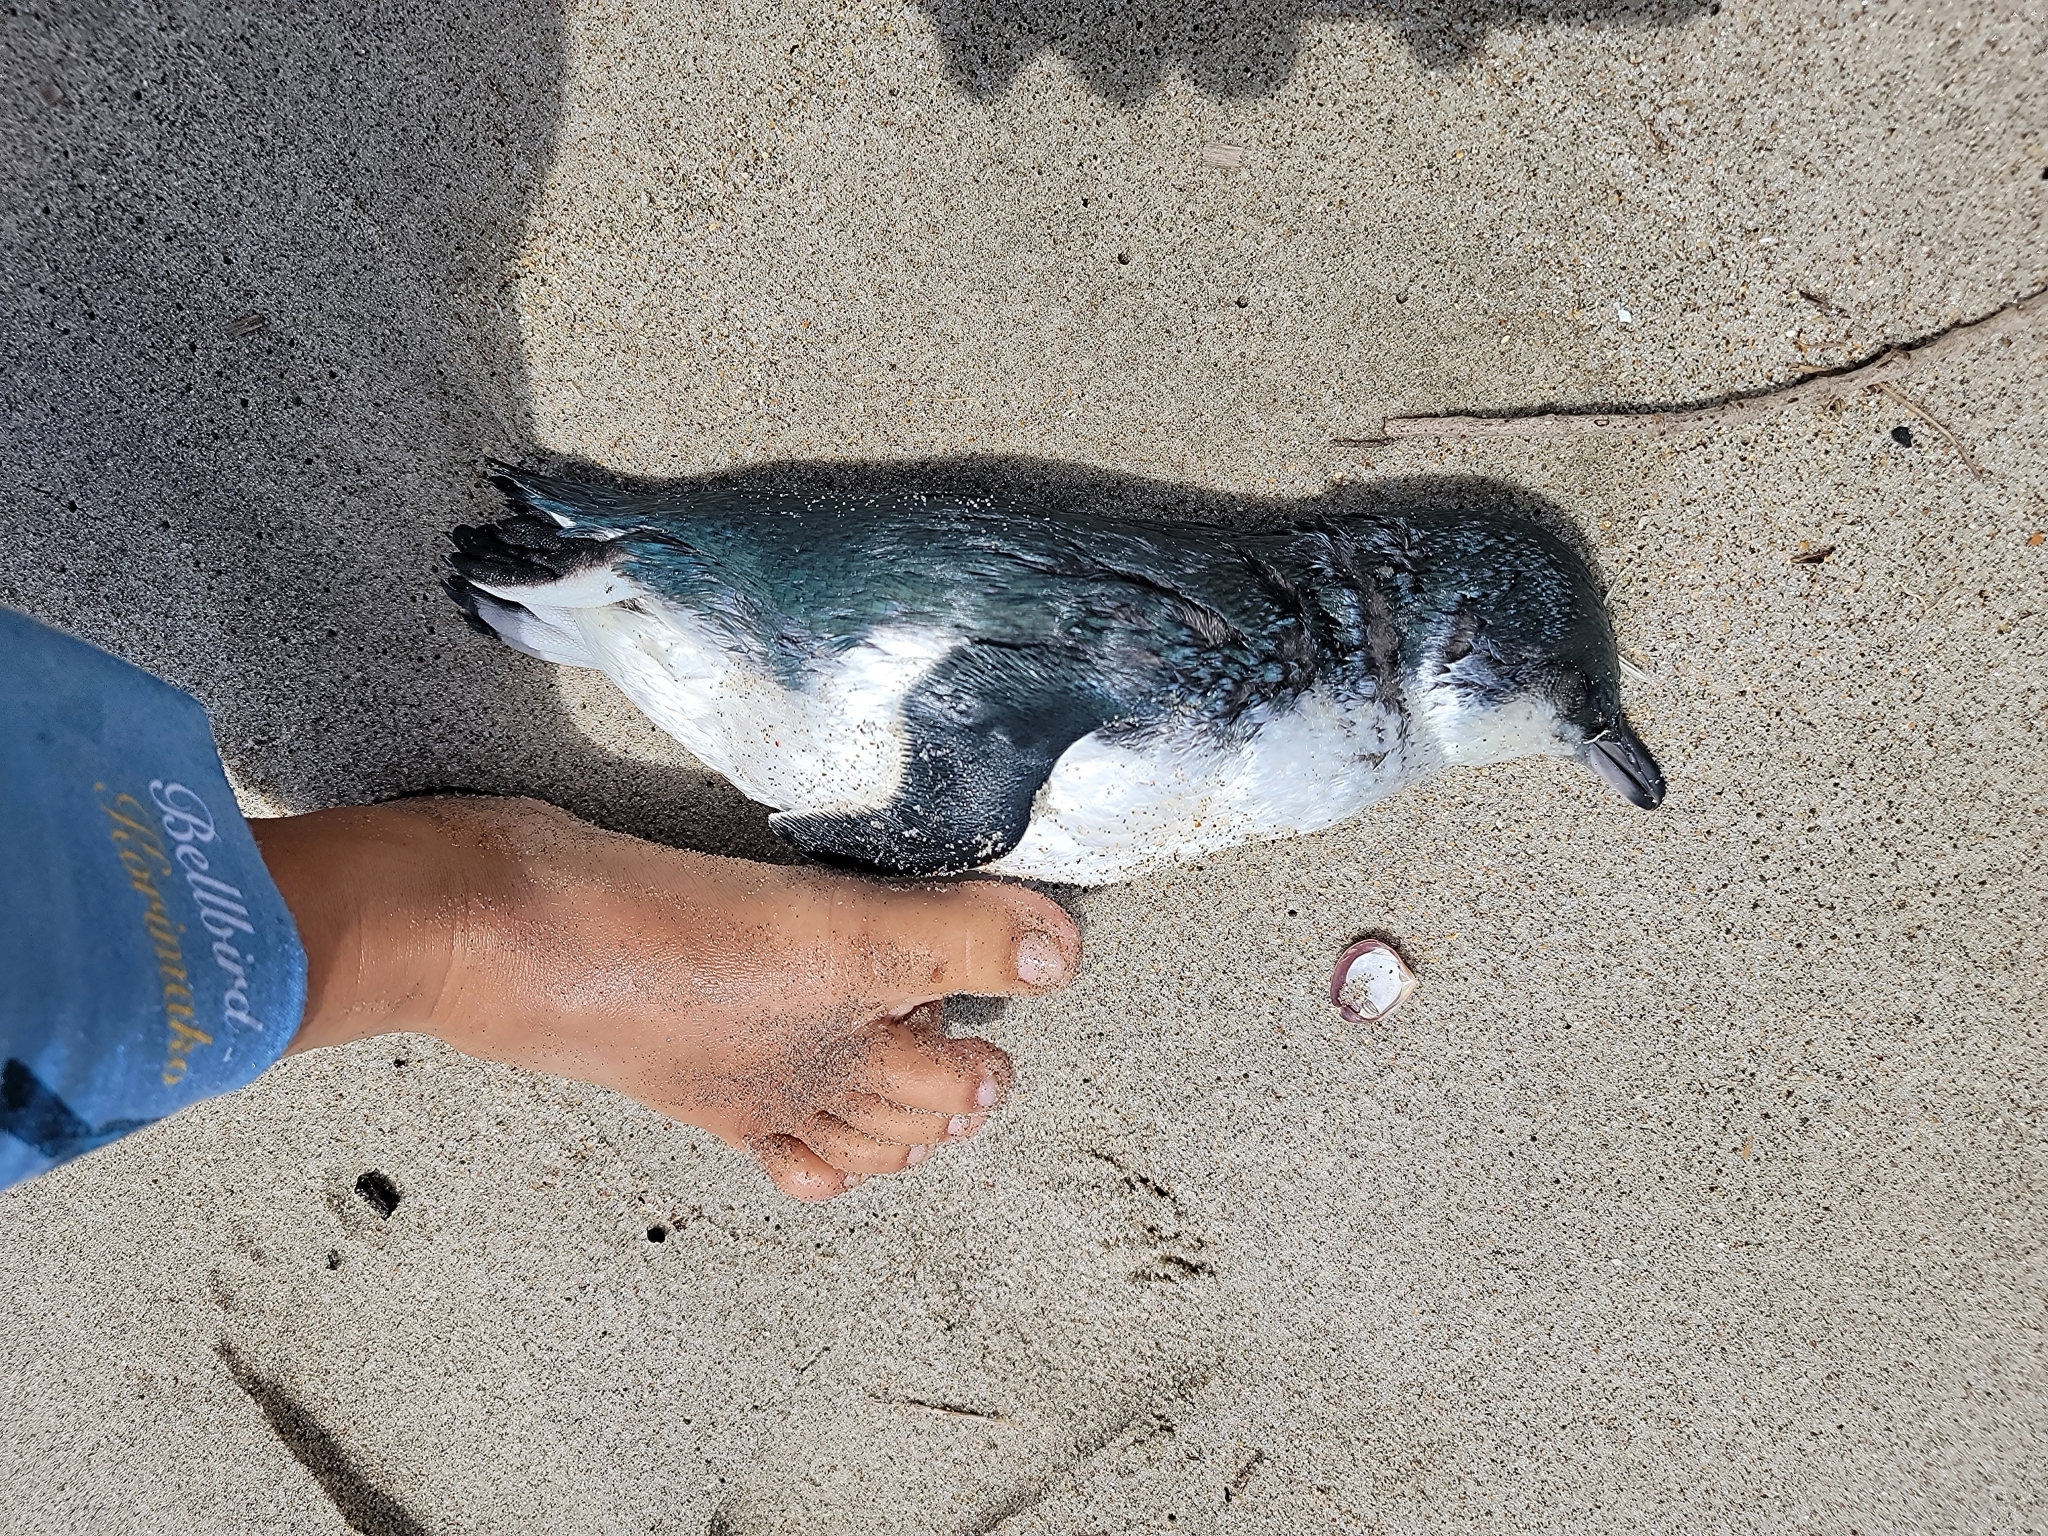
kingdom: Animalia
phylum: Chordata
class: Aves
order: Sphenisciformes
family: Spheniscidae
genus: Eudyptula
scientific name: Eudyptula minor
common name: Little penguin
